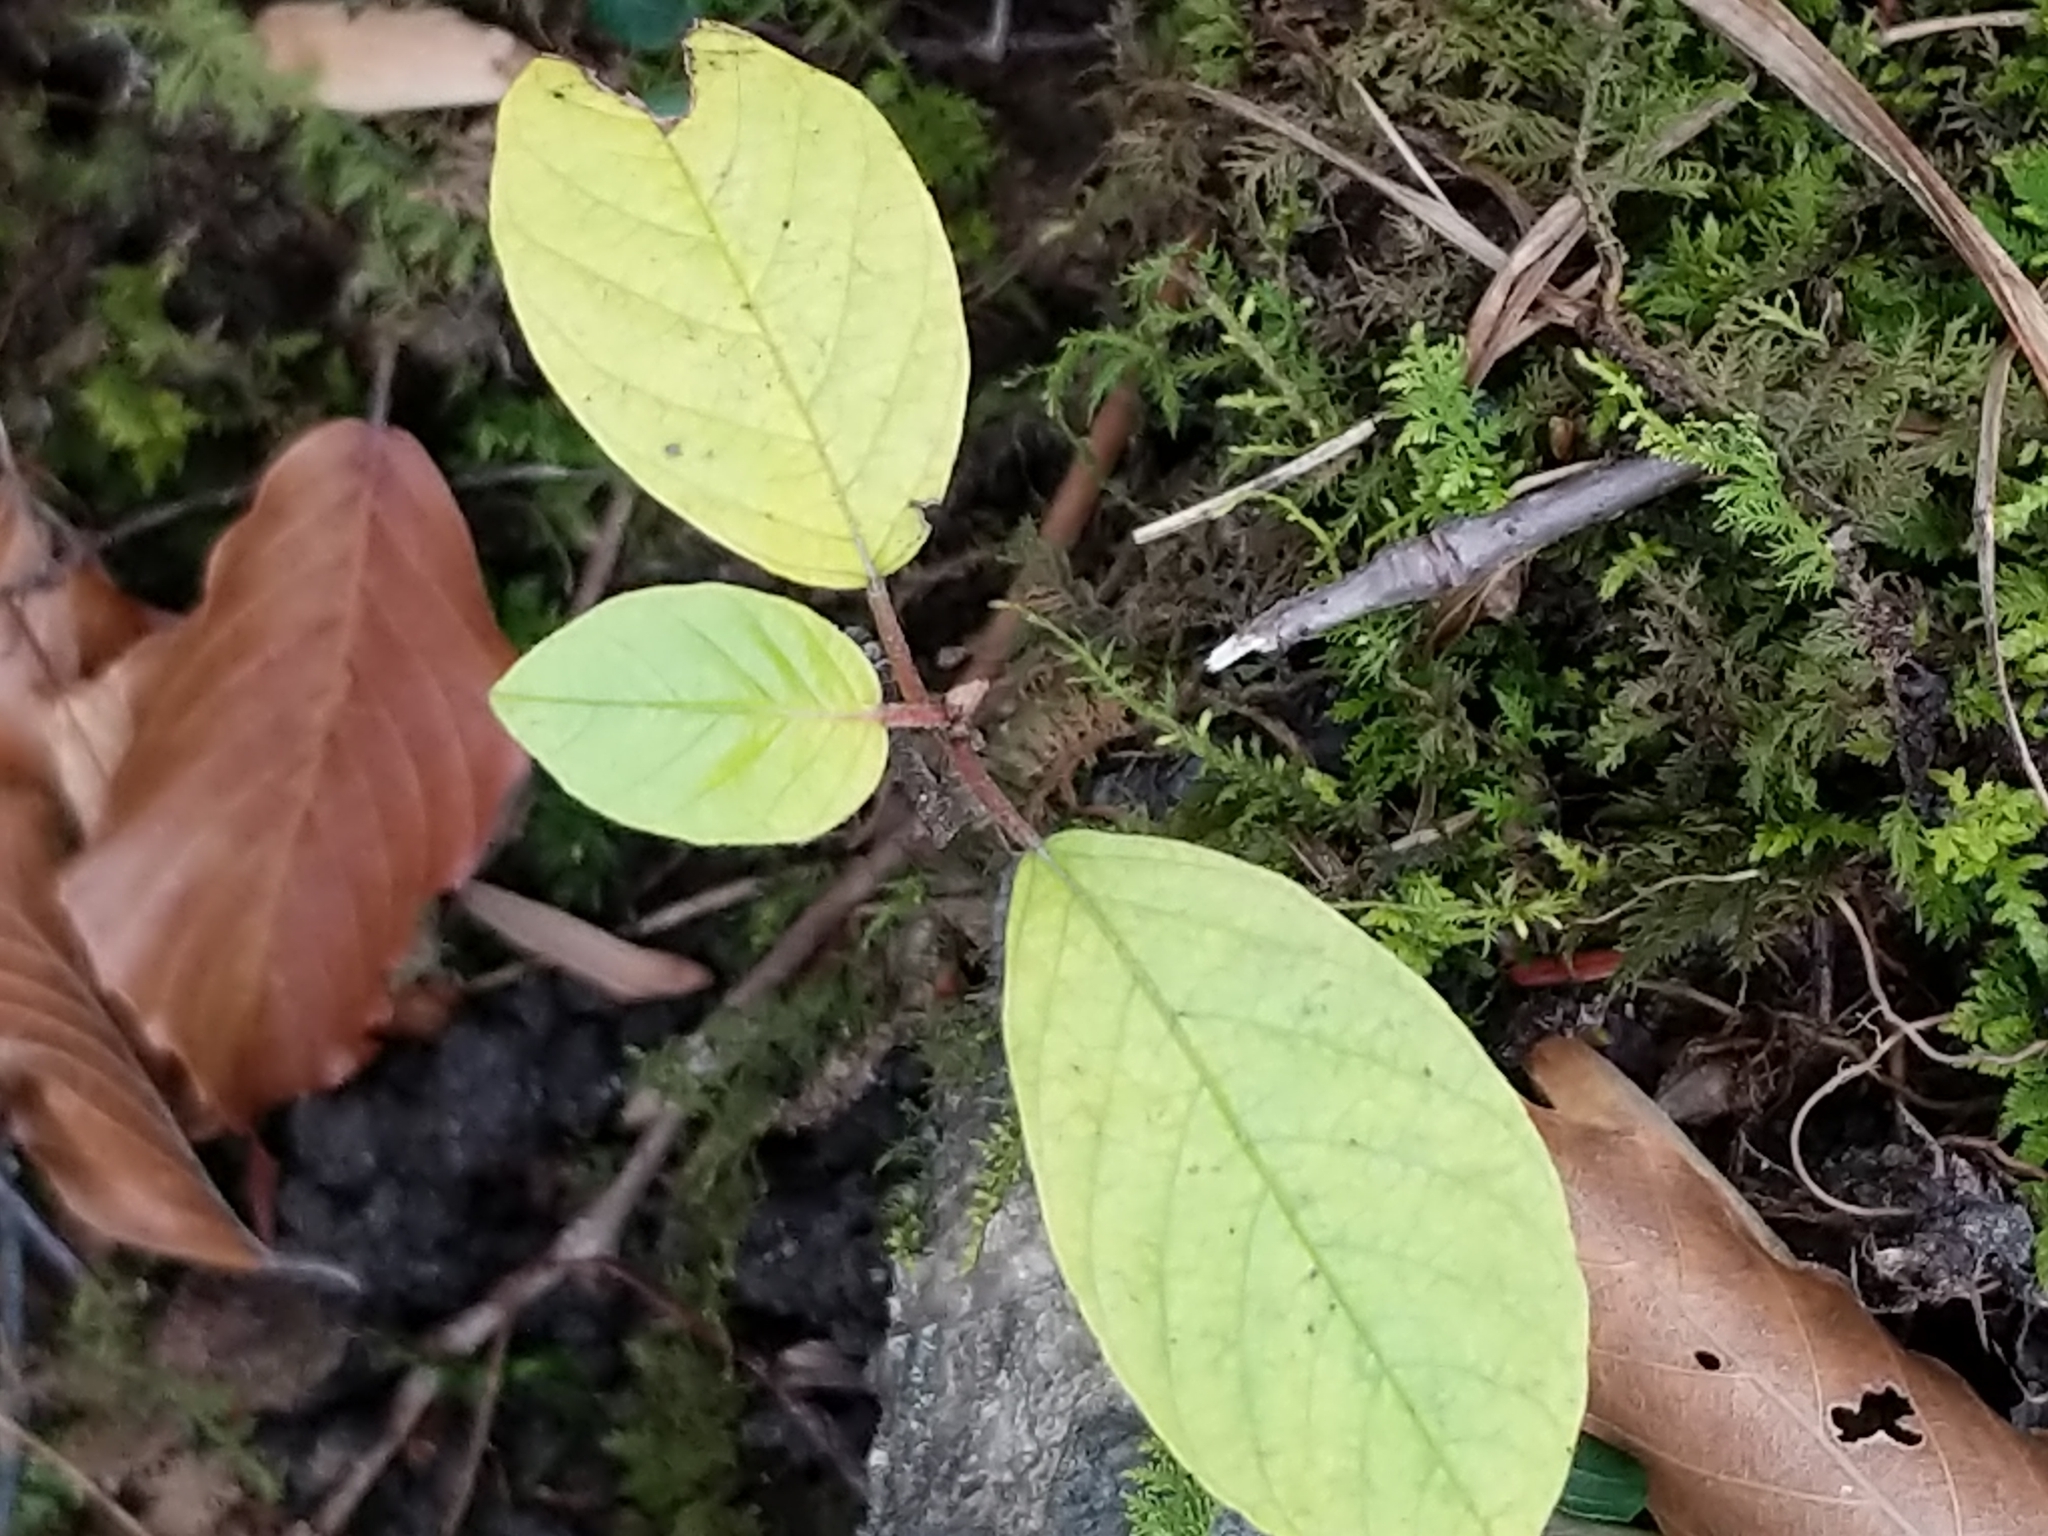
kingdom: Plantae
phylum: Tracheophyta
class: Magnoliopsida
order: Rosales
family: Rhamnaceae
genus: Frangula
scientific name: Frangula alnus
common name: Alder buckthorn
